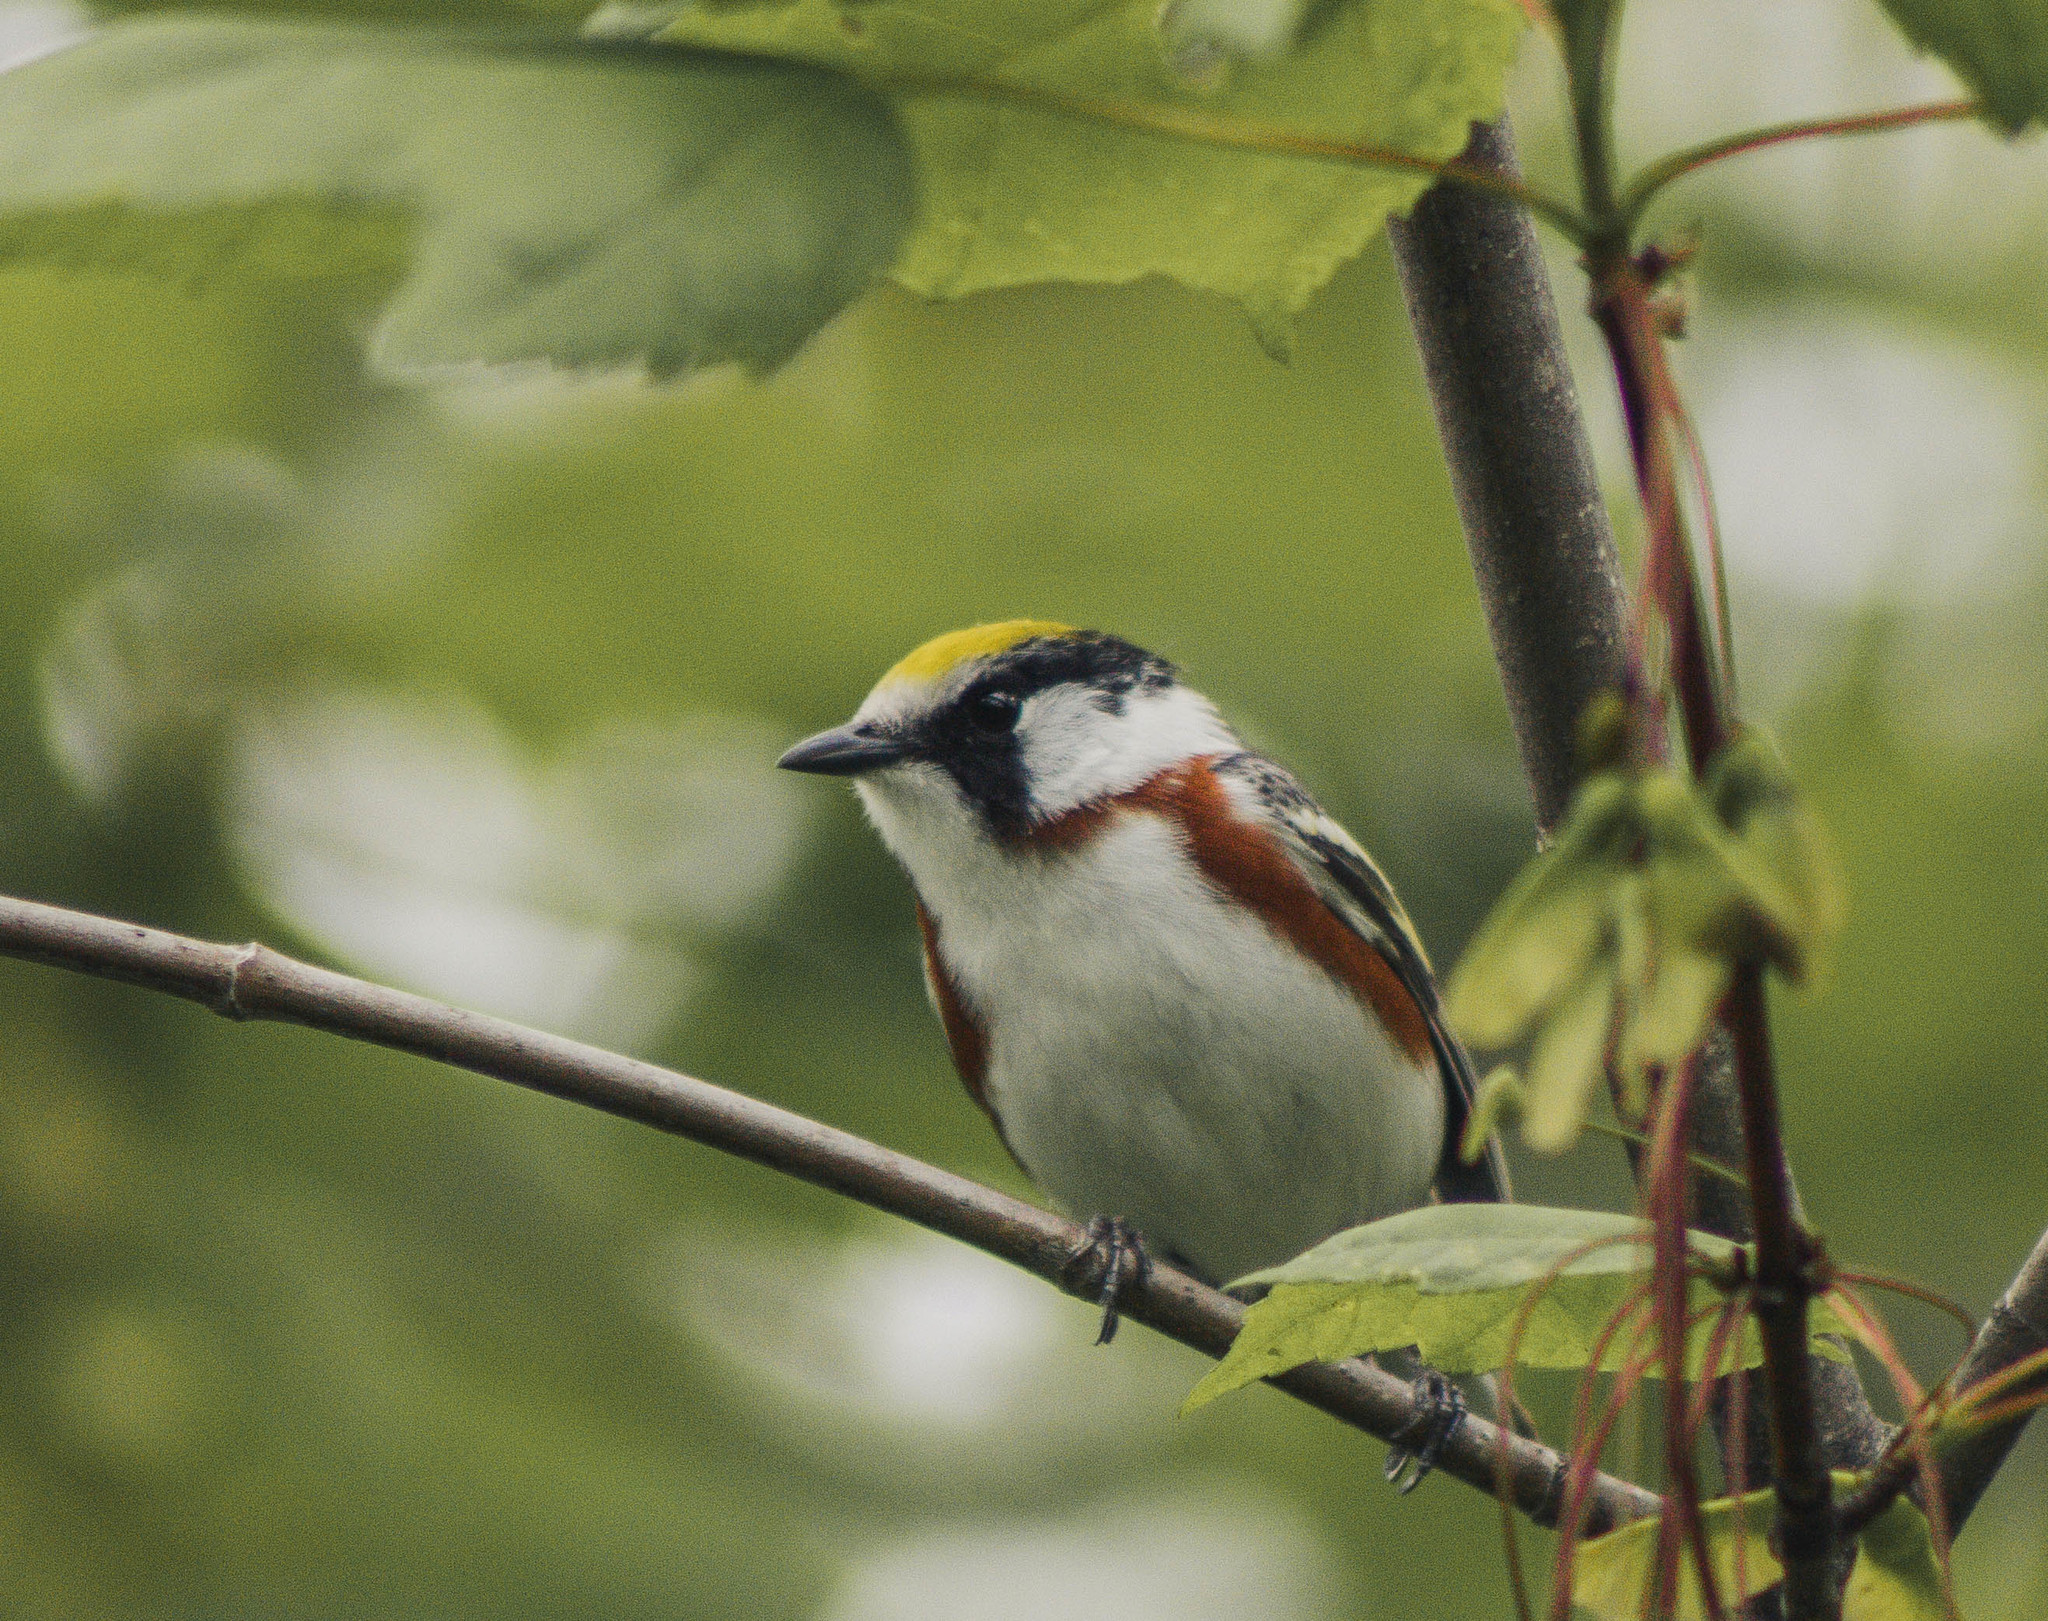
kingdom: Animalia
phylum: Chordata
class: Aves
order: Passeriformes
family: Parulidae
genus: Setophaga
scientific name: Setophaga pensylvanica
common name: Chestnut-sided warbler
